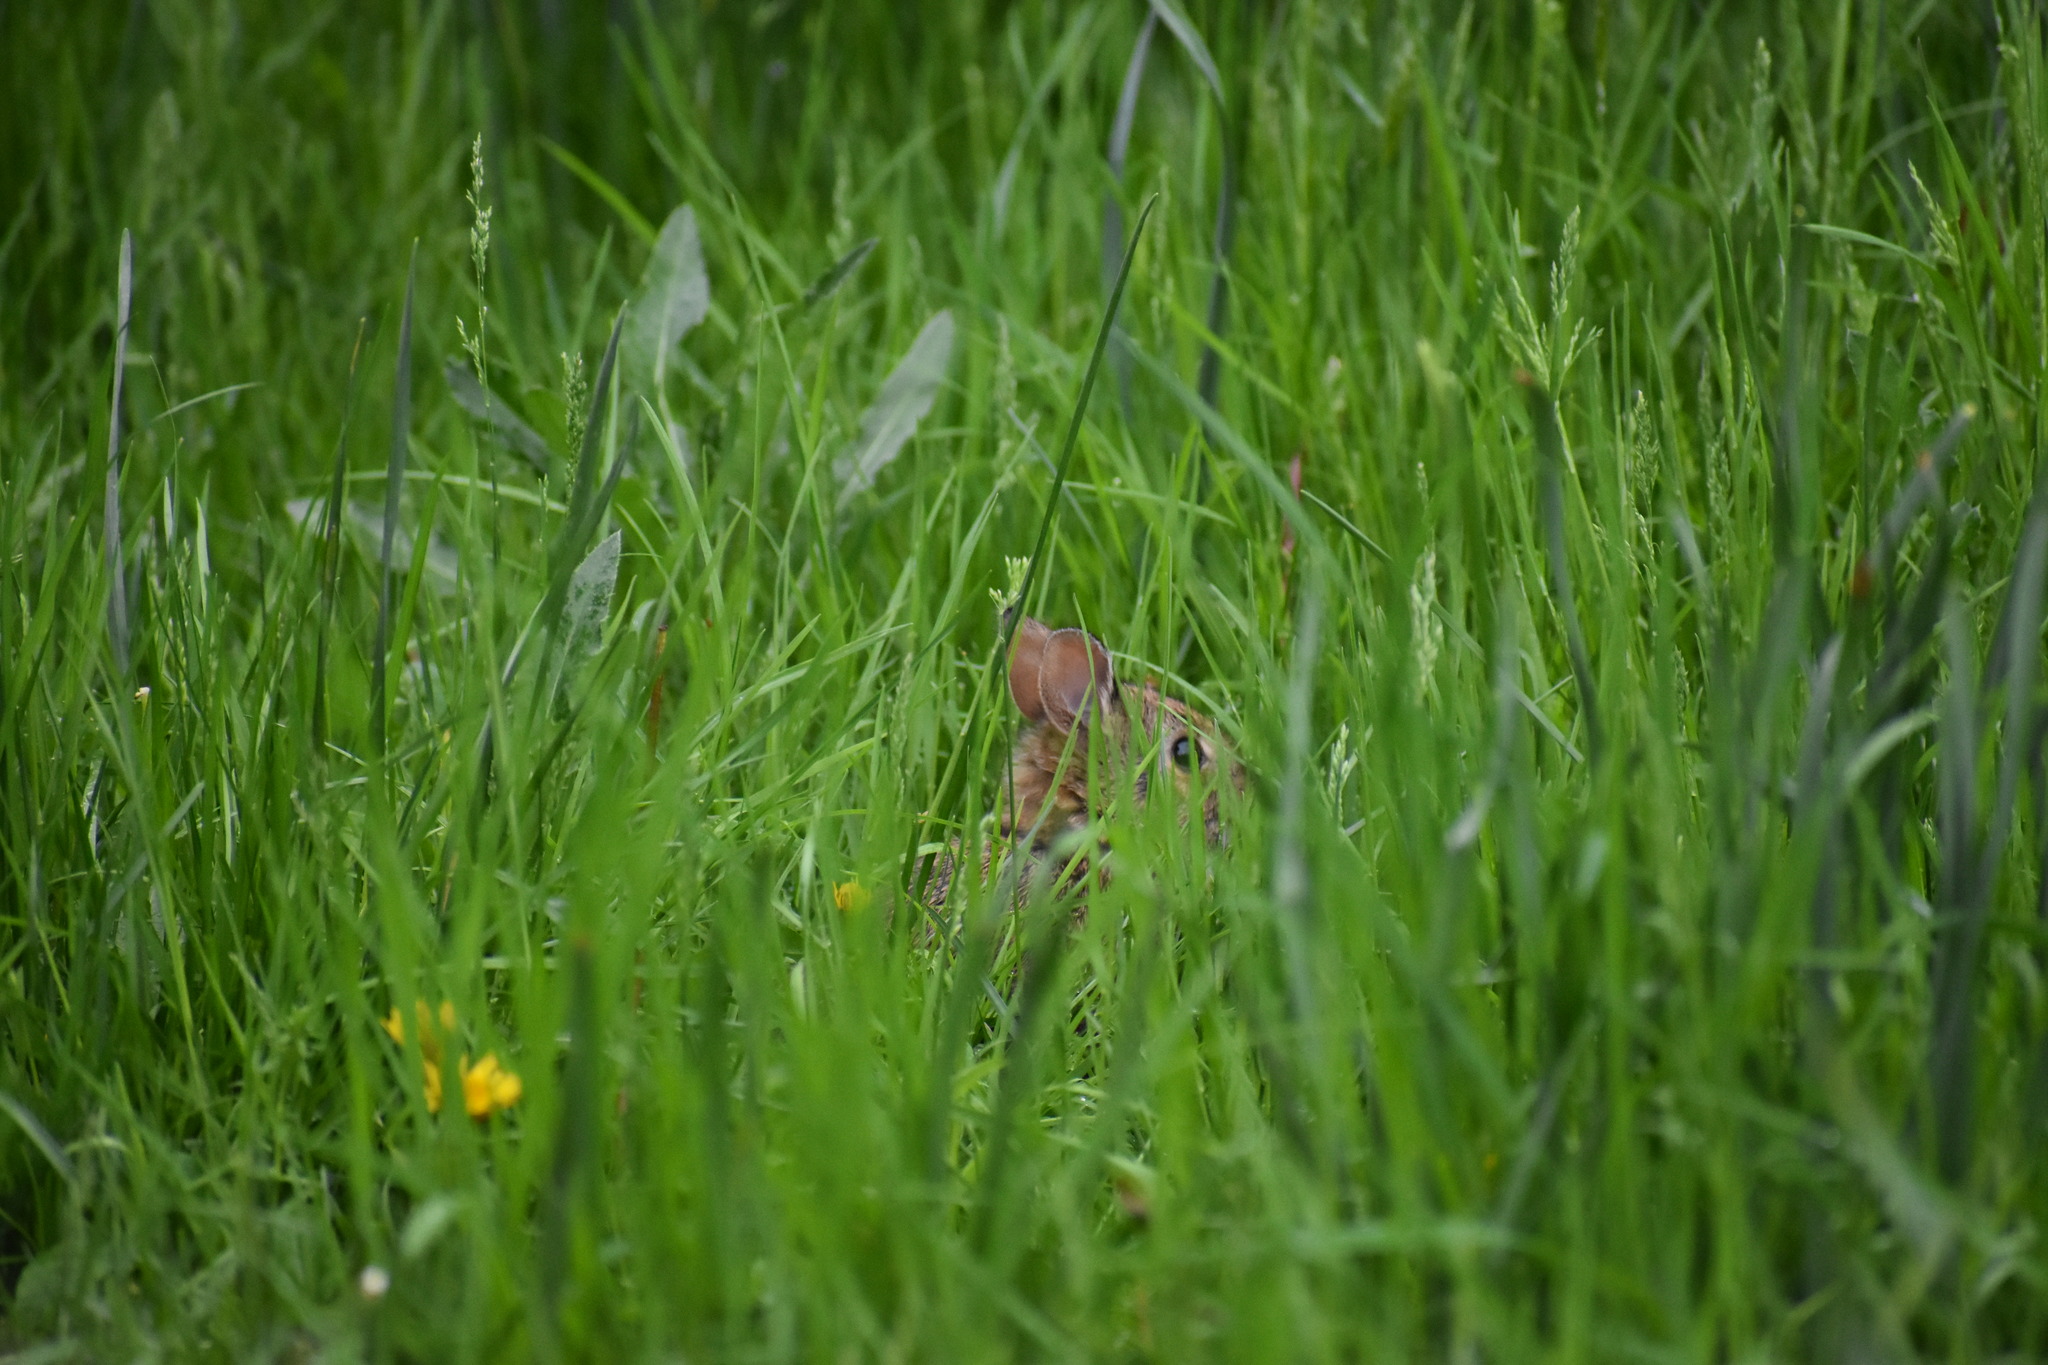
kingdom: Animalia
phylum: Chordata
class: Mammalia
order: Lagomorpha
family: Leporidae
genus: Sylvilagus
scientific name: Sylvilagus floridanus
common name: Eastern cottontail
